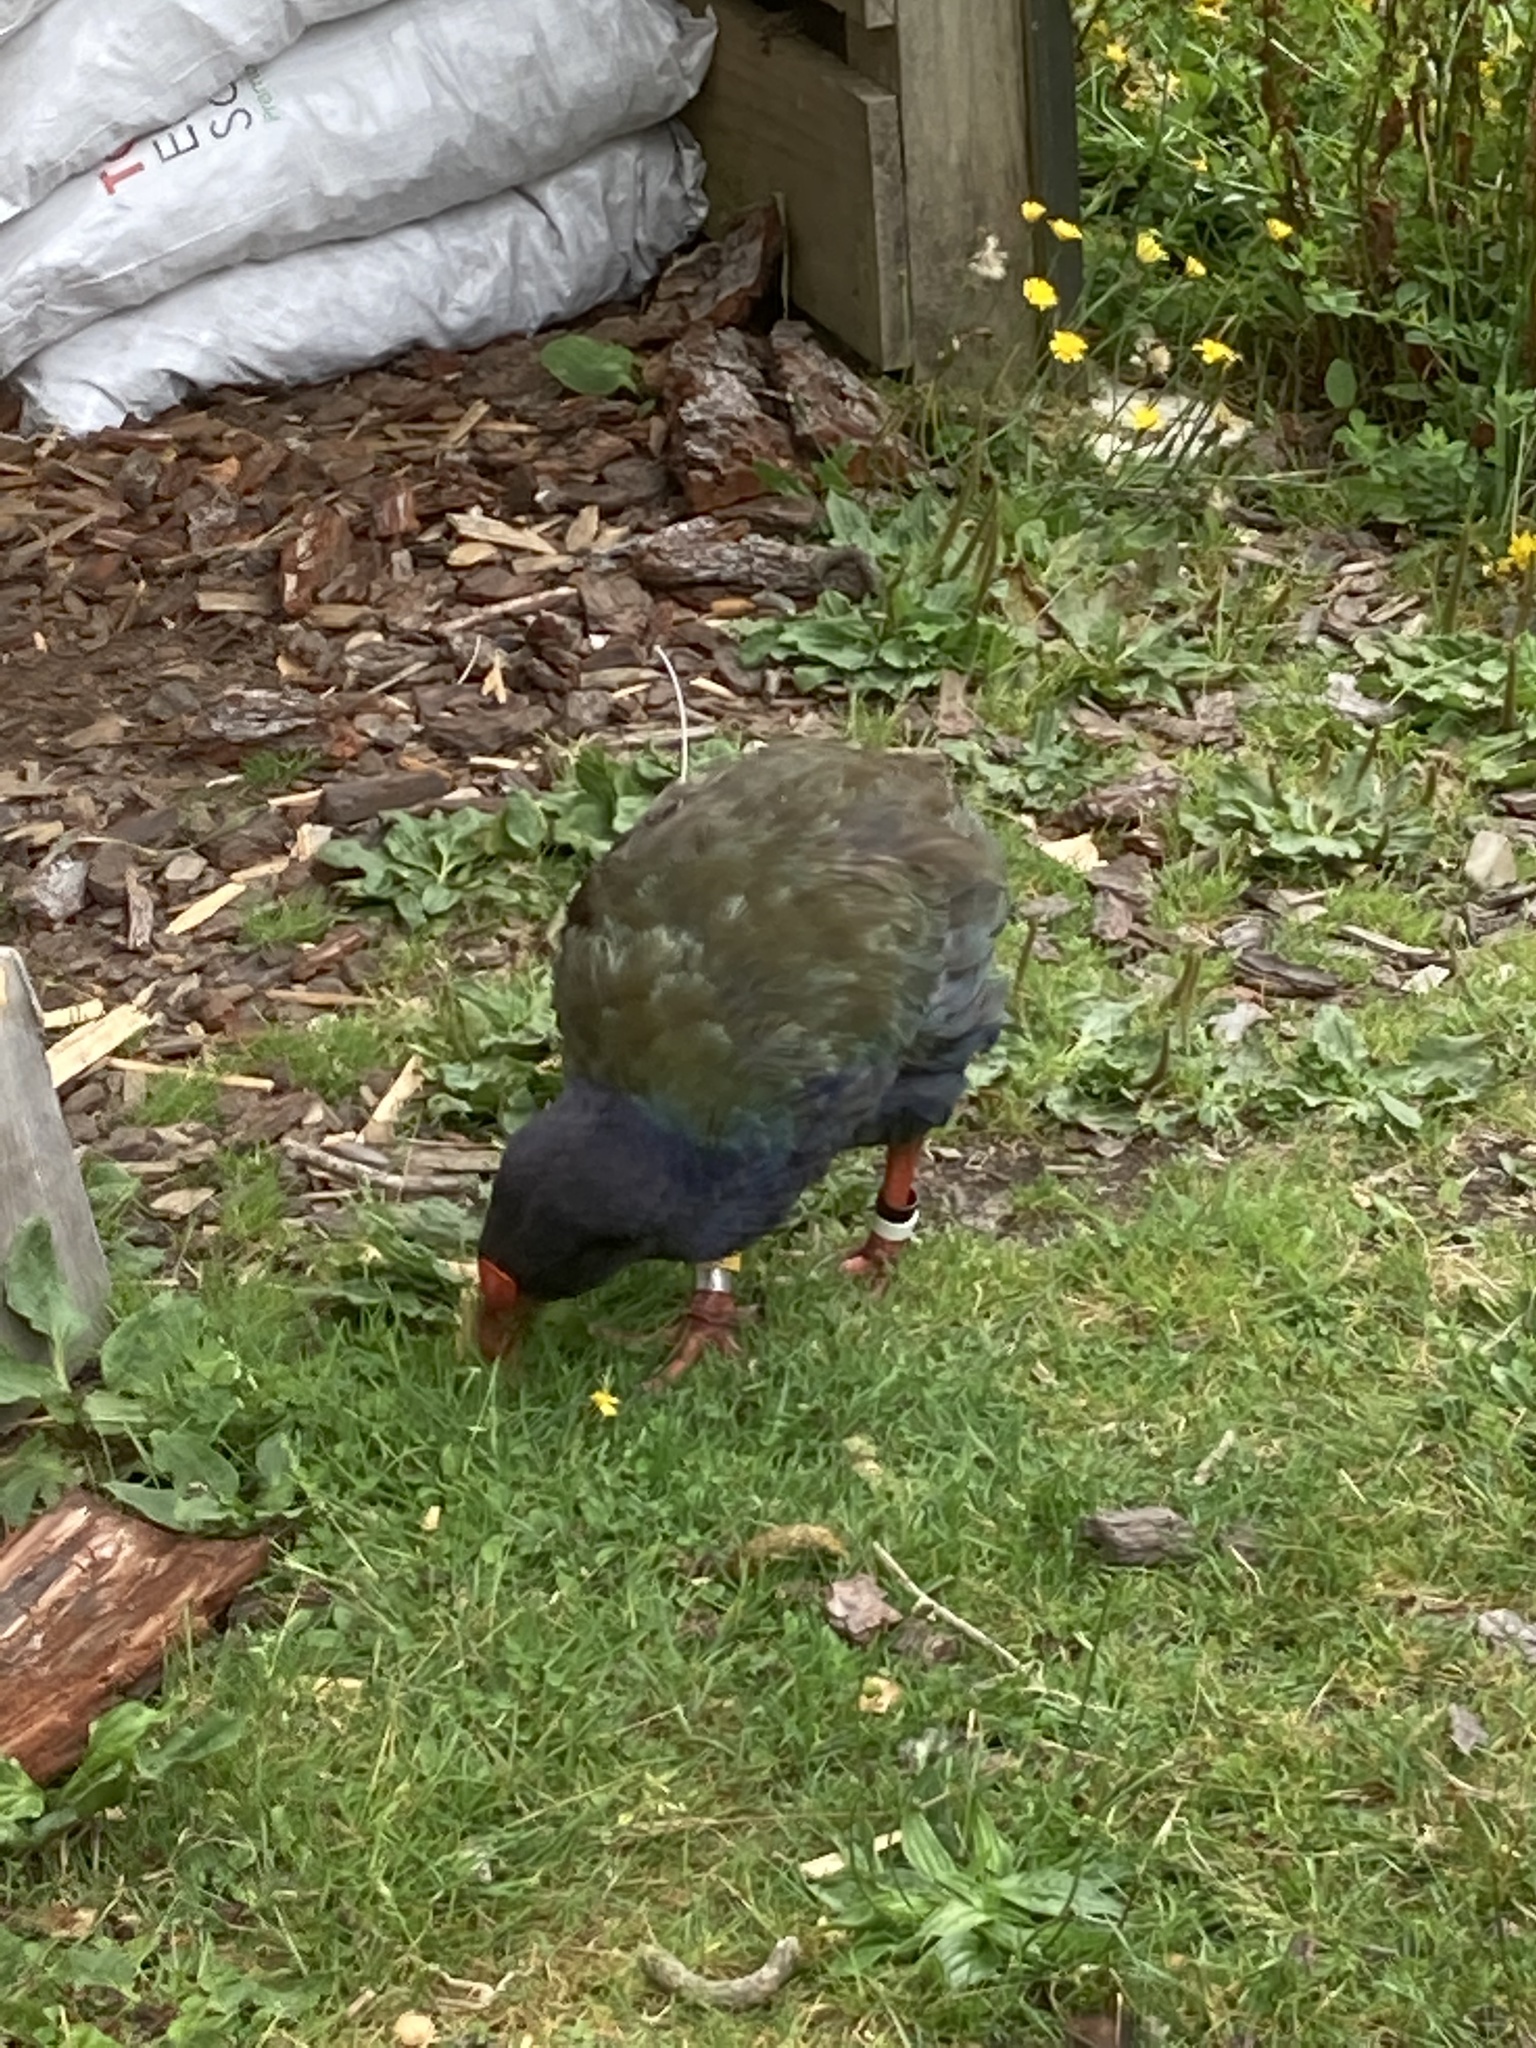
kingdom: Animalia
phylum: Chordata
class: Aves
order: Gruiformes
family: Rallidae
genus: Porphyrio
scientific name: Porphyrio hochstetteri
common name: South island takahe
